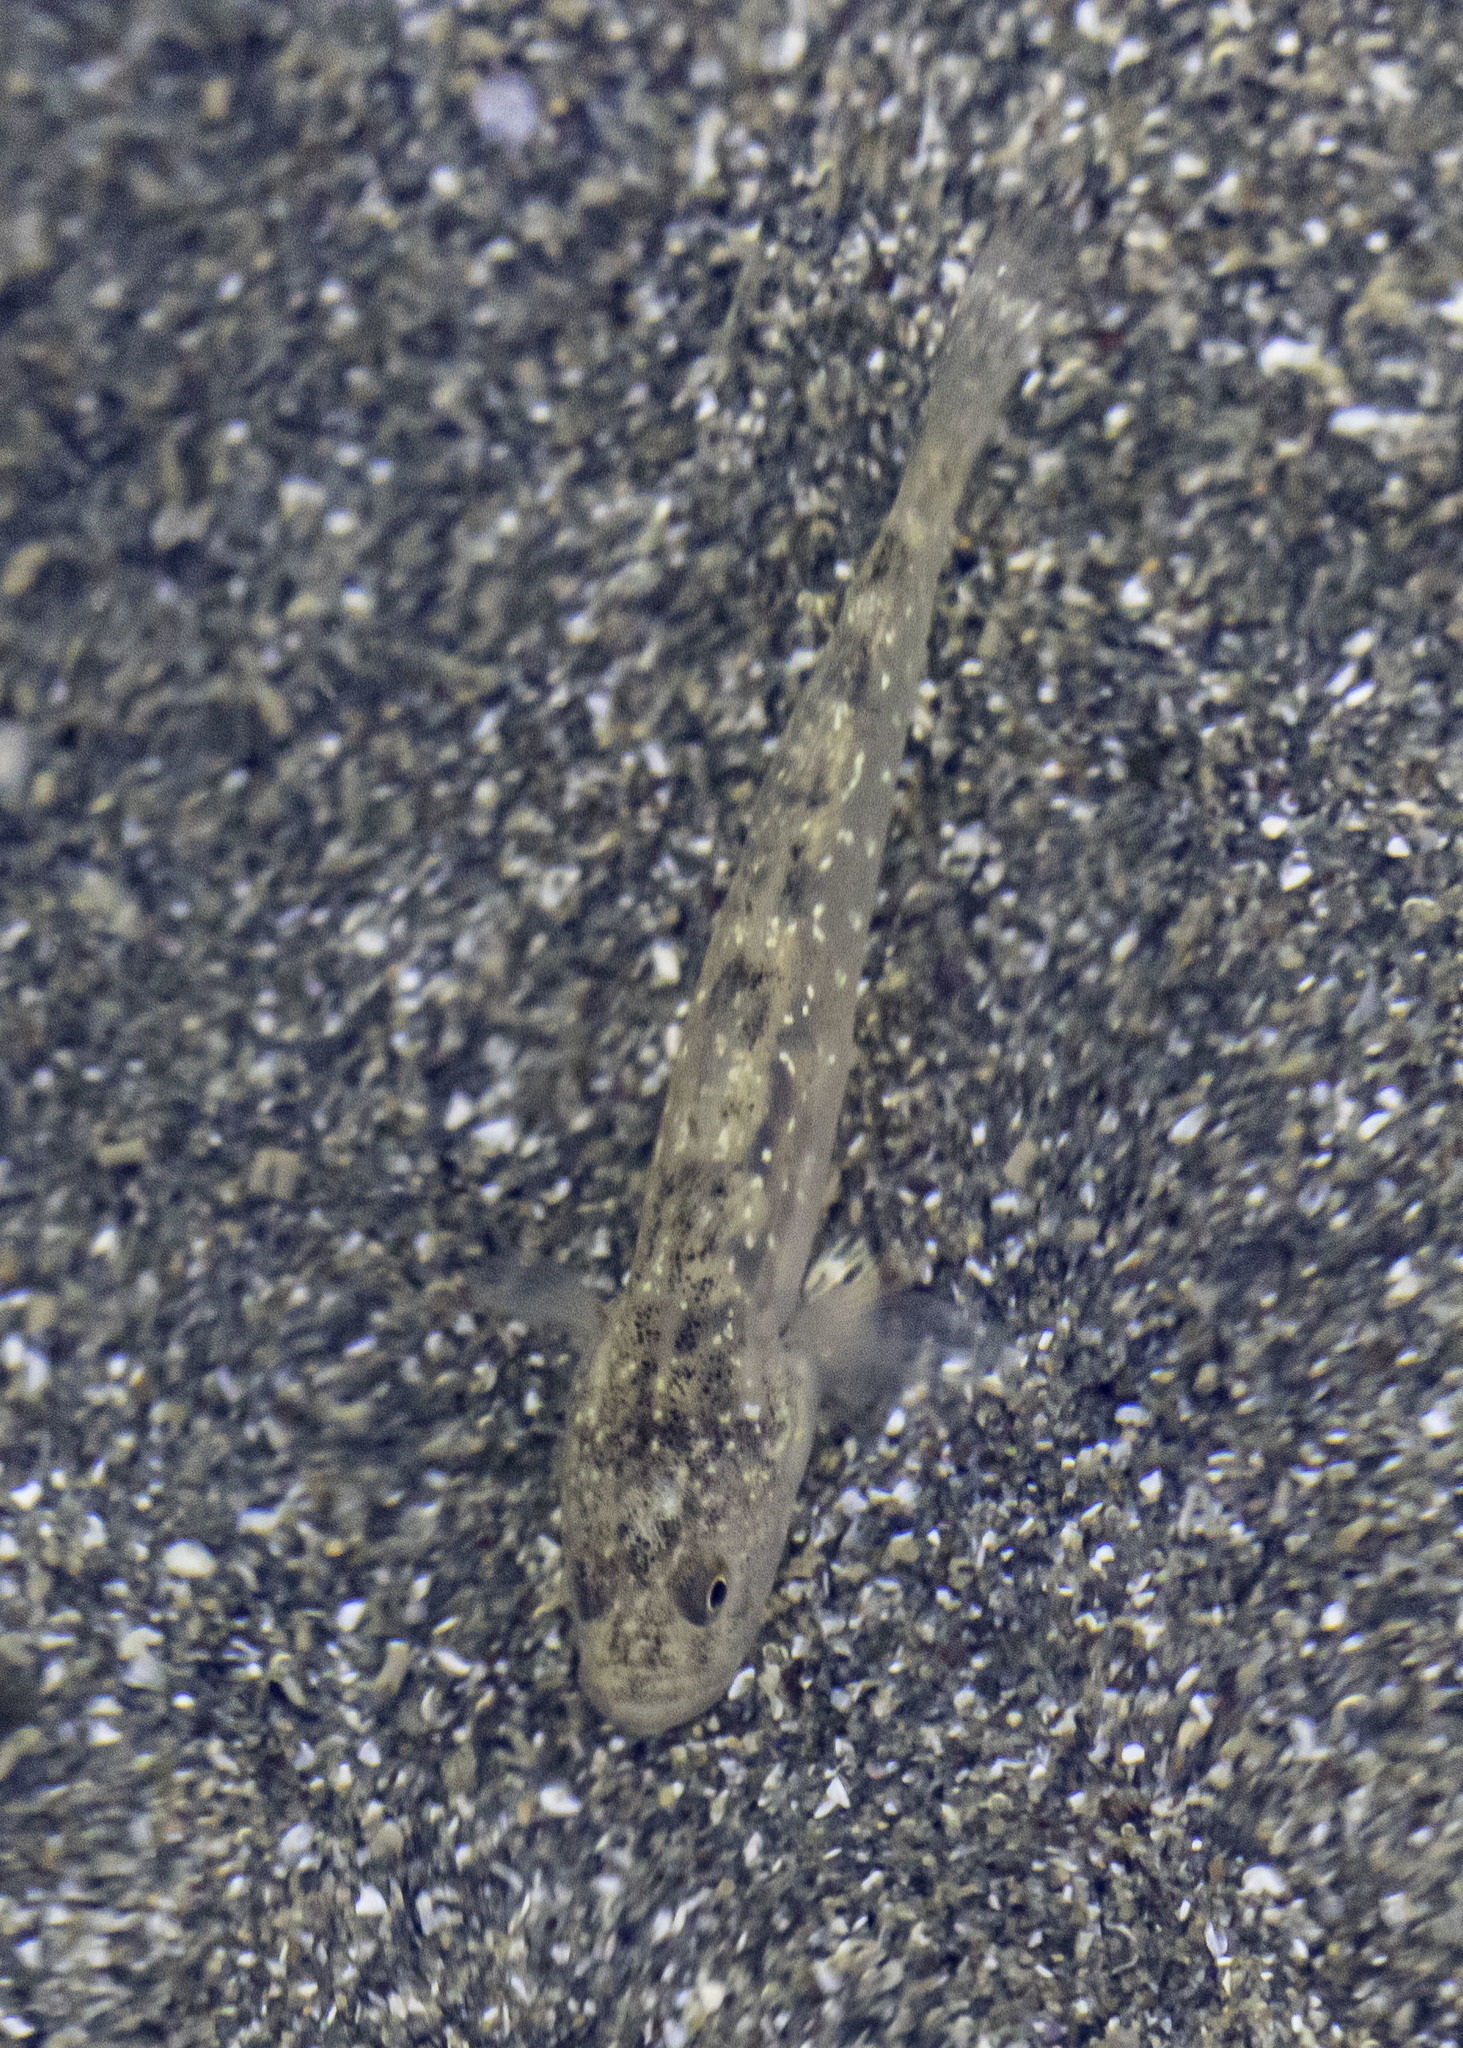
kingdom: Animalia
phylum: Chordata
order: Perciformes
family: Gobiidae
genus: Eucyclogobius
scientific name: Eucyclogobius newberryi
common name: Tidewater goby
